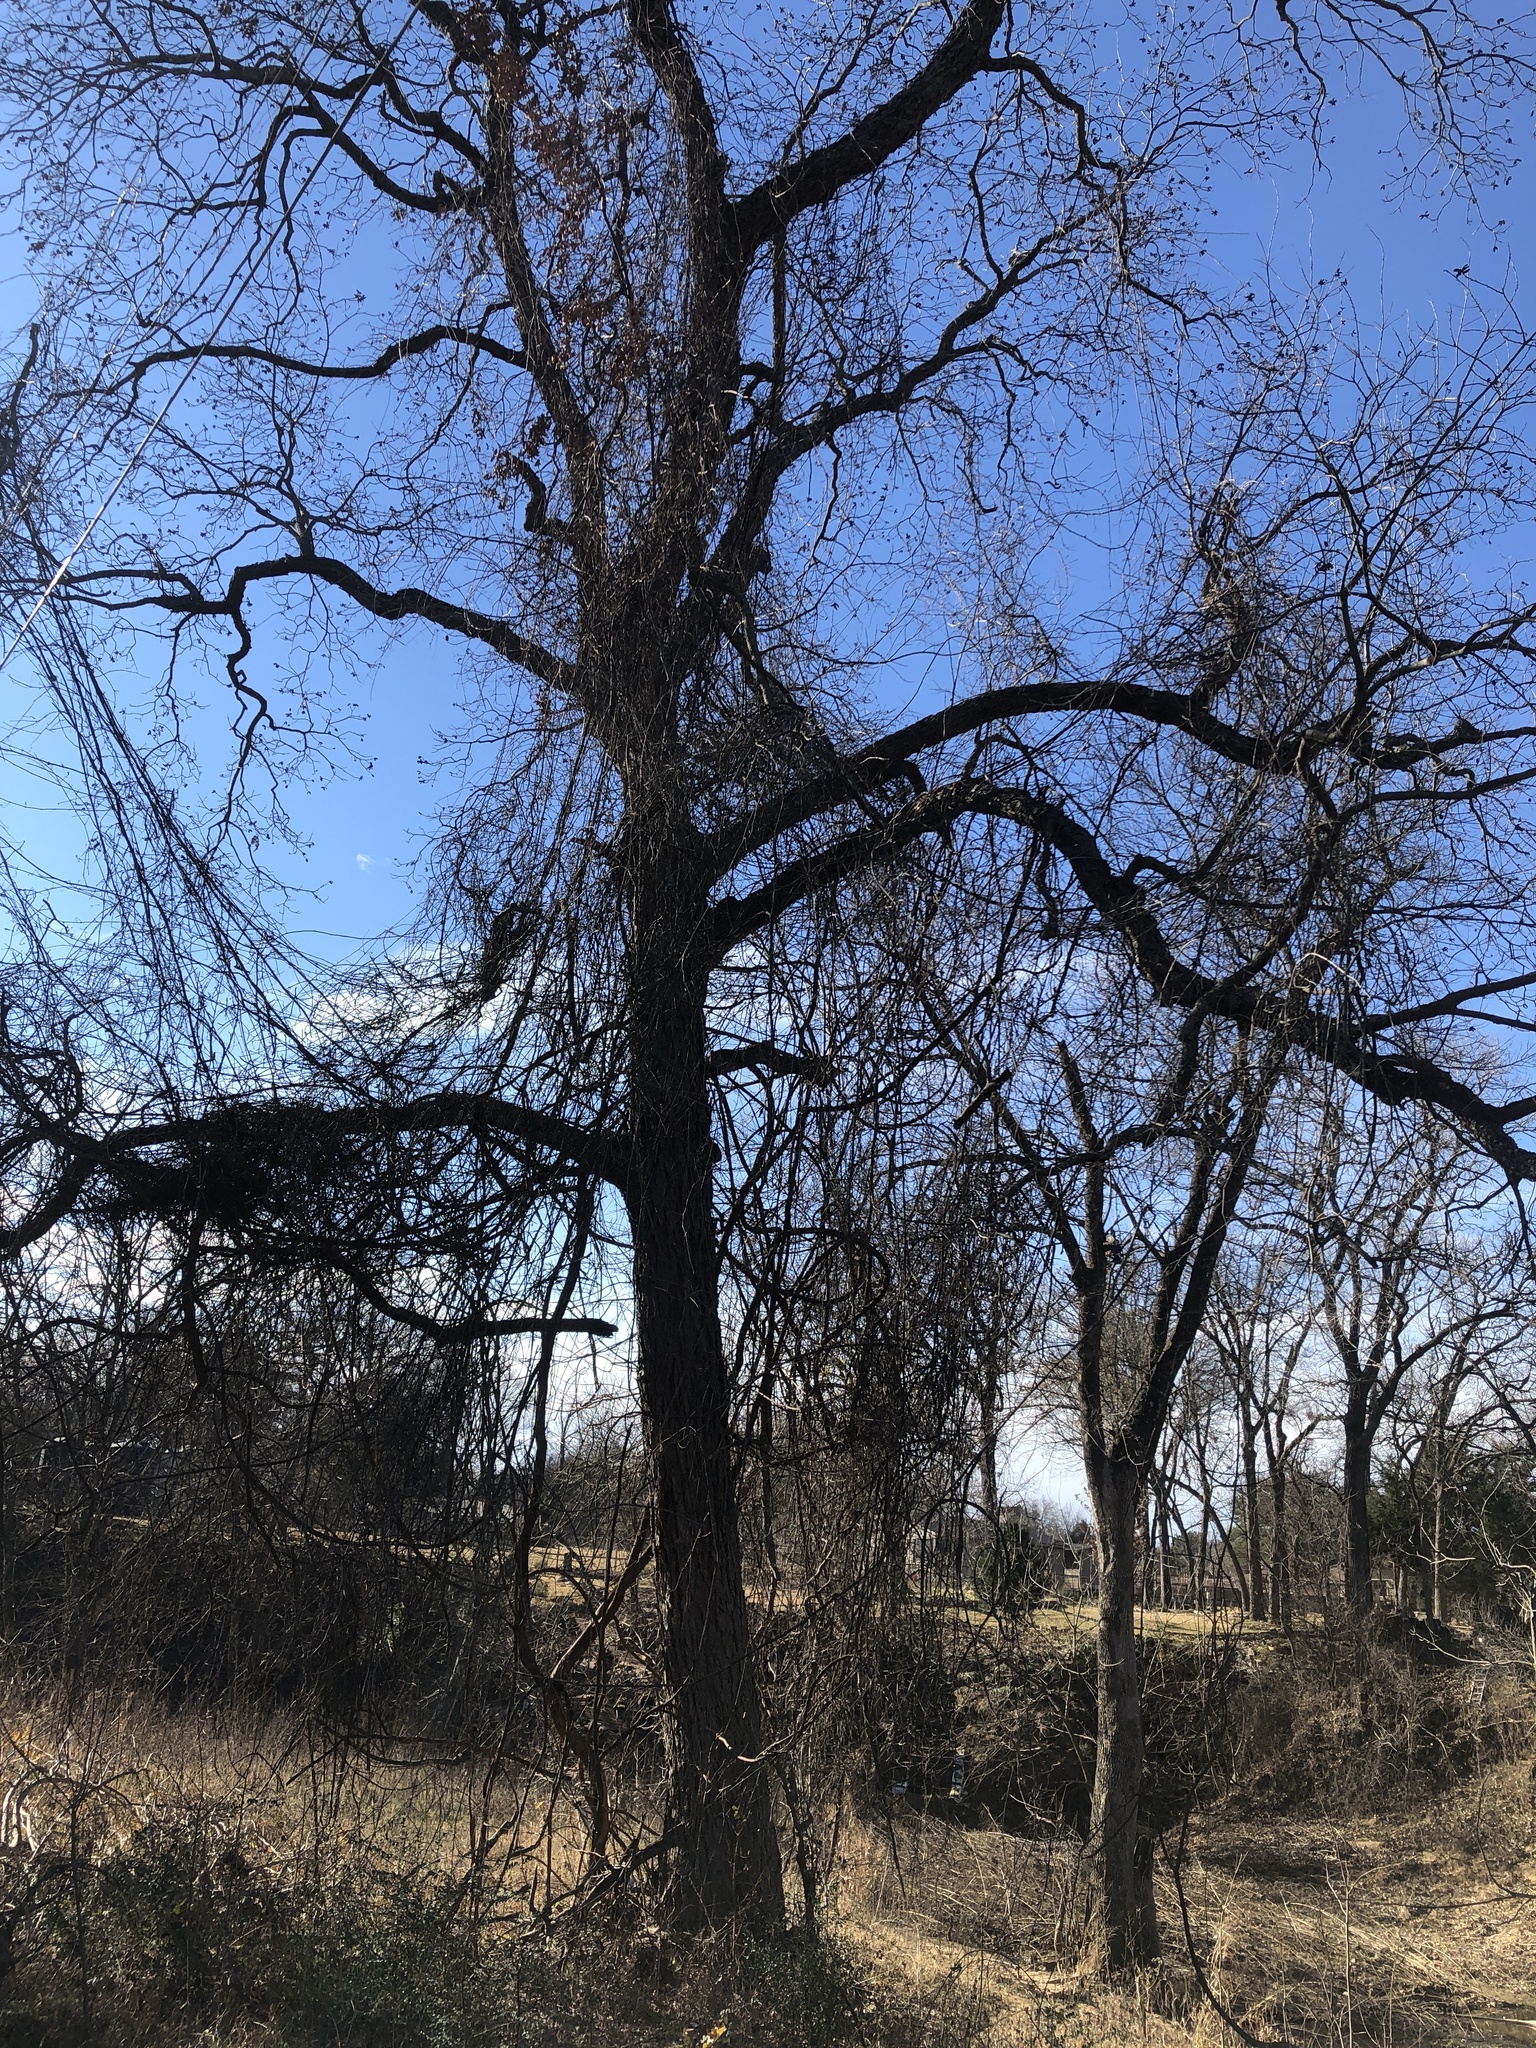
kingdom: Plantae
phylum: Tracheophyta
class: Magnoliopsida
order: Fagales
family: Juglandaceae
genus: Carya
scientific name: Carya illinoinensis
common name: Pecan
